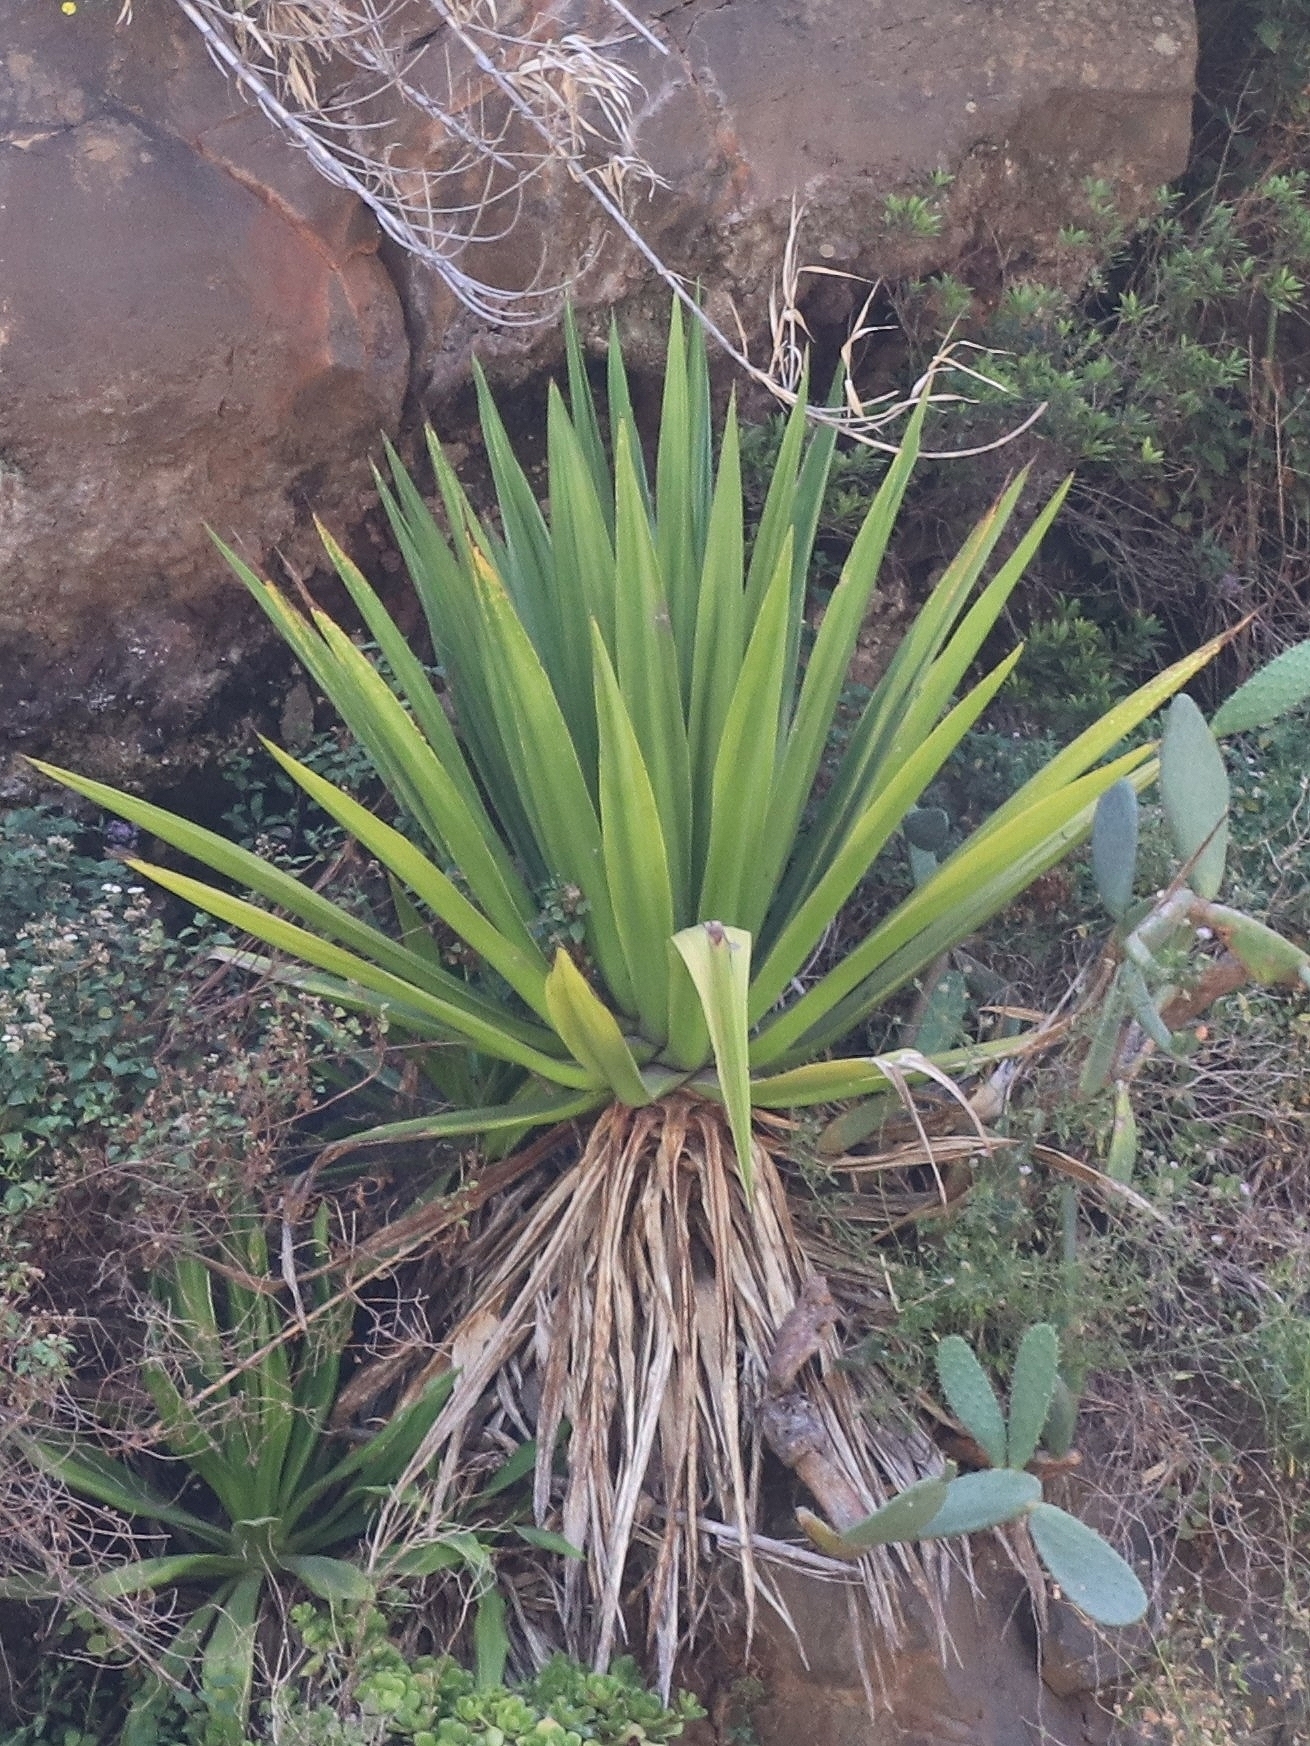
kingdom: Plantae
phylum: Tracheophyta
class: Liliopsida
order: Asparagales
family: Asparagaceae
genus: Furcraea
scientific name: Furcraea foetida
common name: Mauritius hemp
